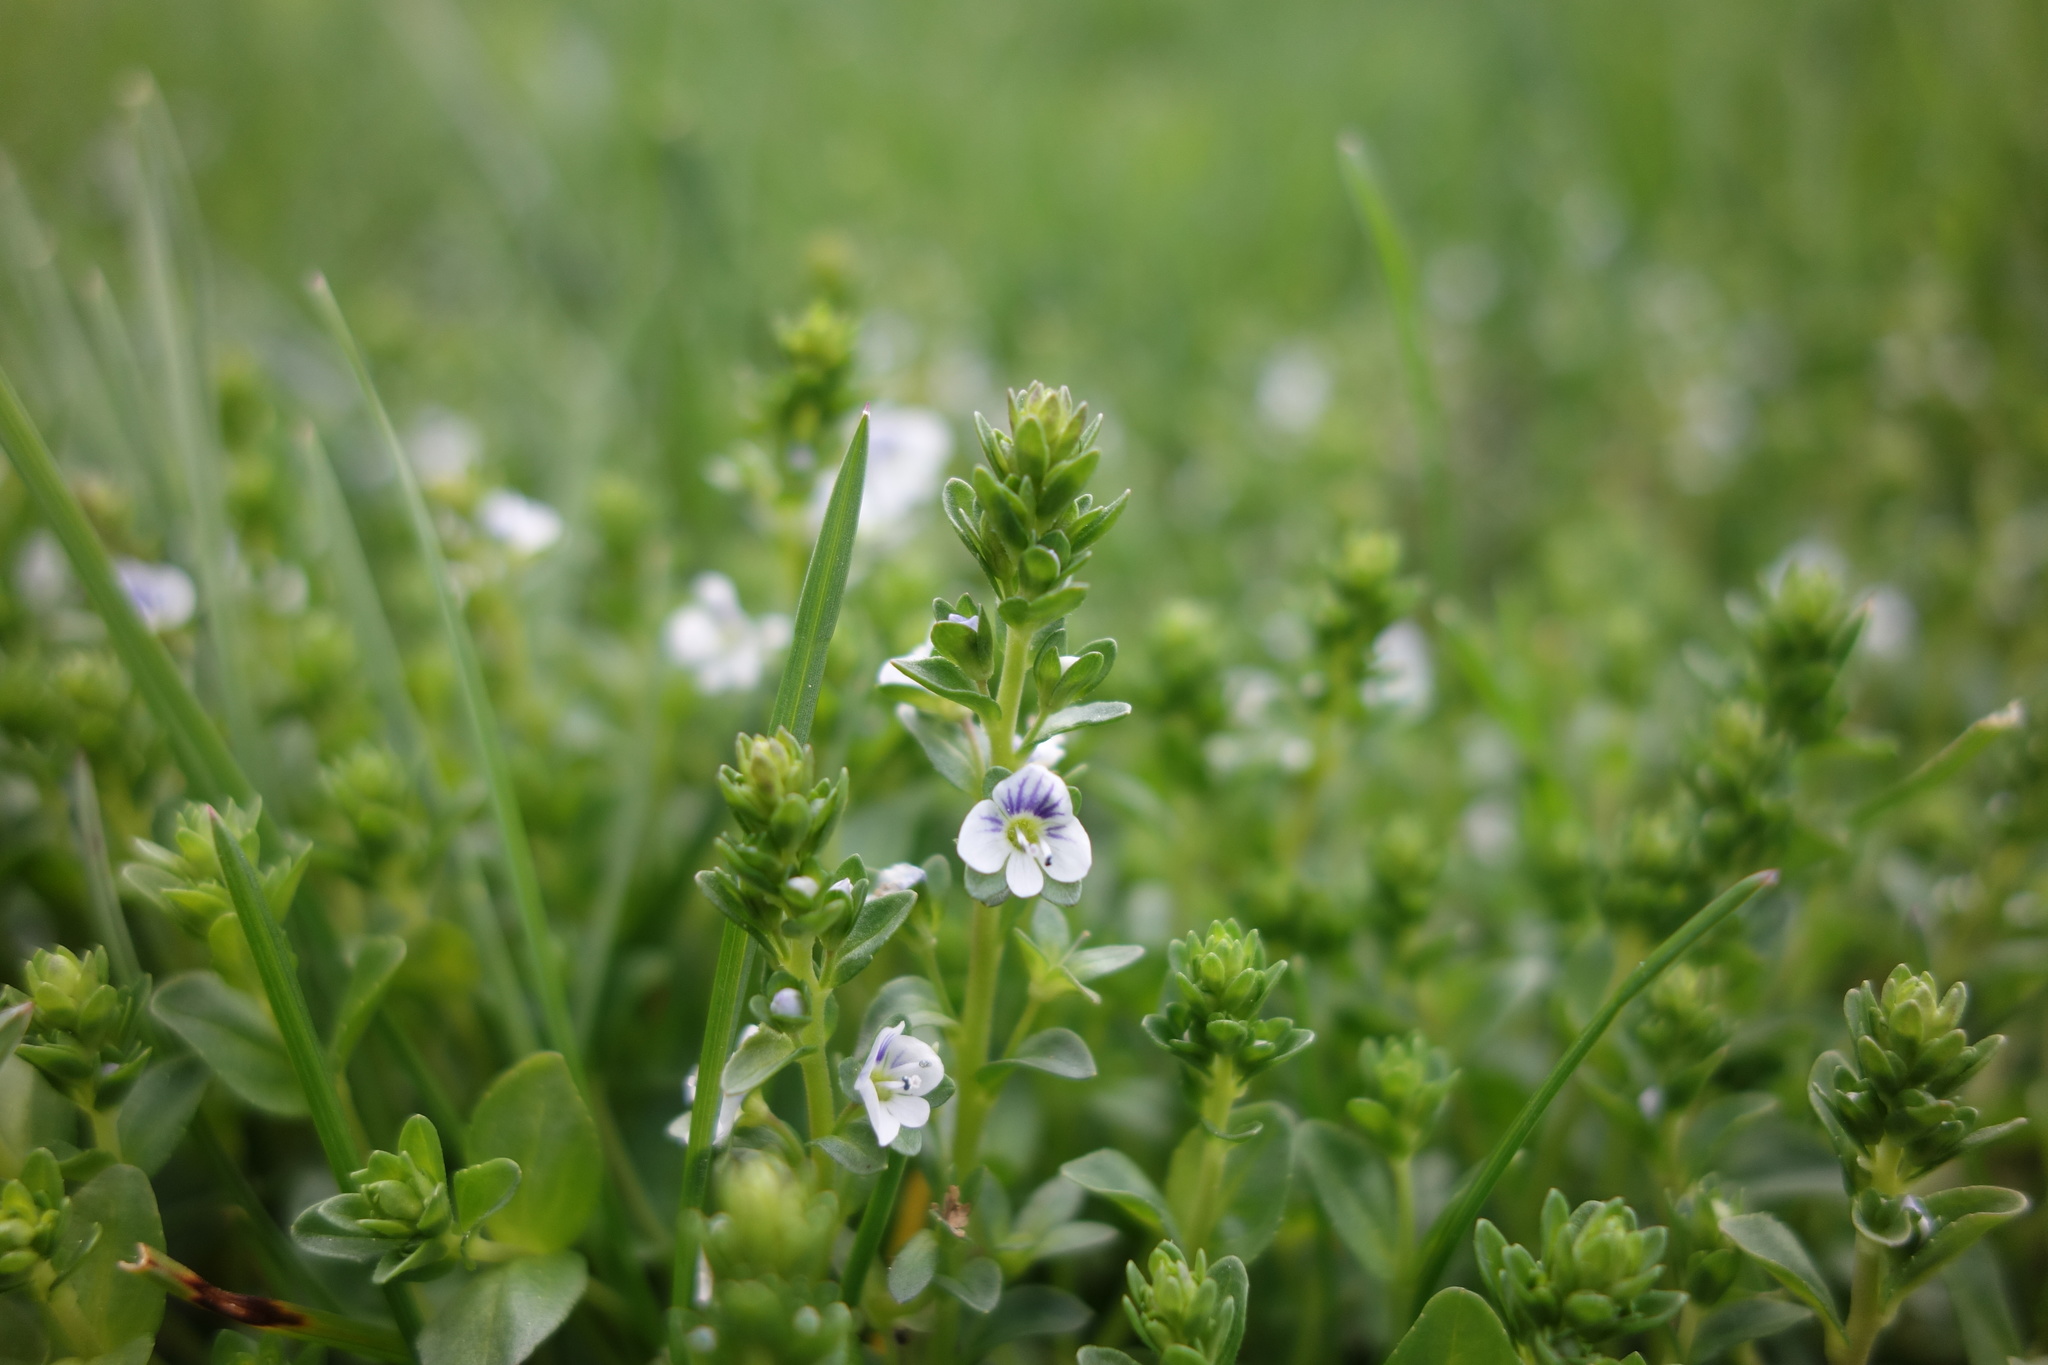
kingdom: Plantae
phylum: Tracheophyta
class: Magnoliopsida
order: Lamiales
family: Plantaginaceae
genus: Veronica
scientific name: Veronica serpyllifolia
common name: Thyme-leaved speedwell
